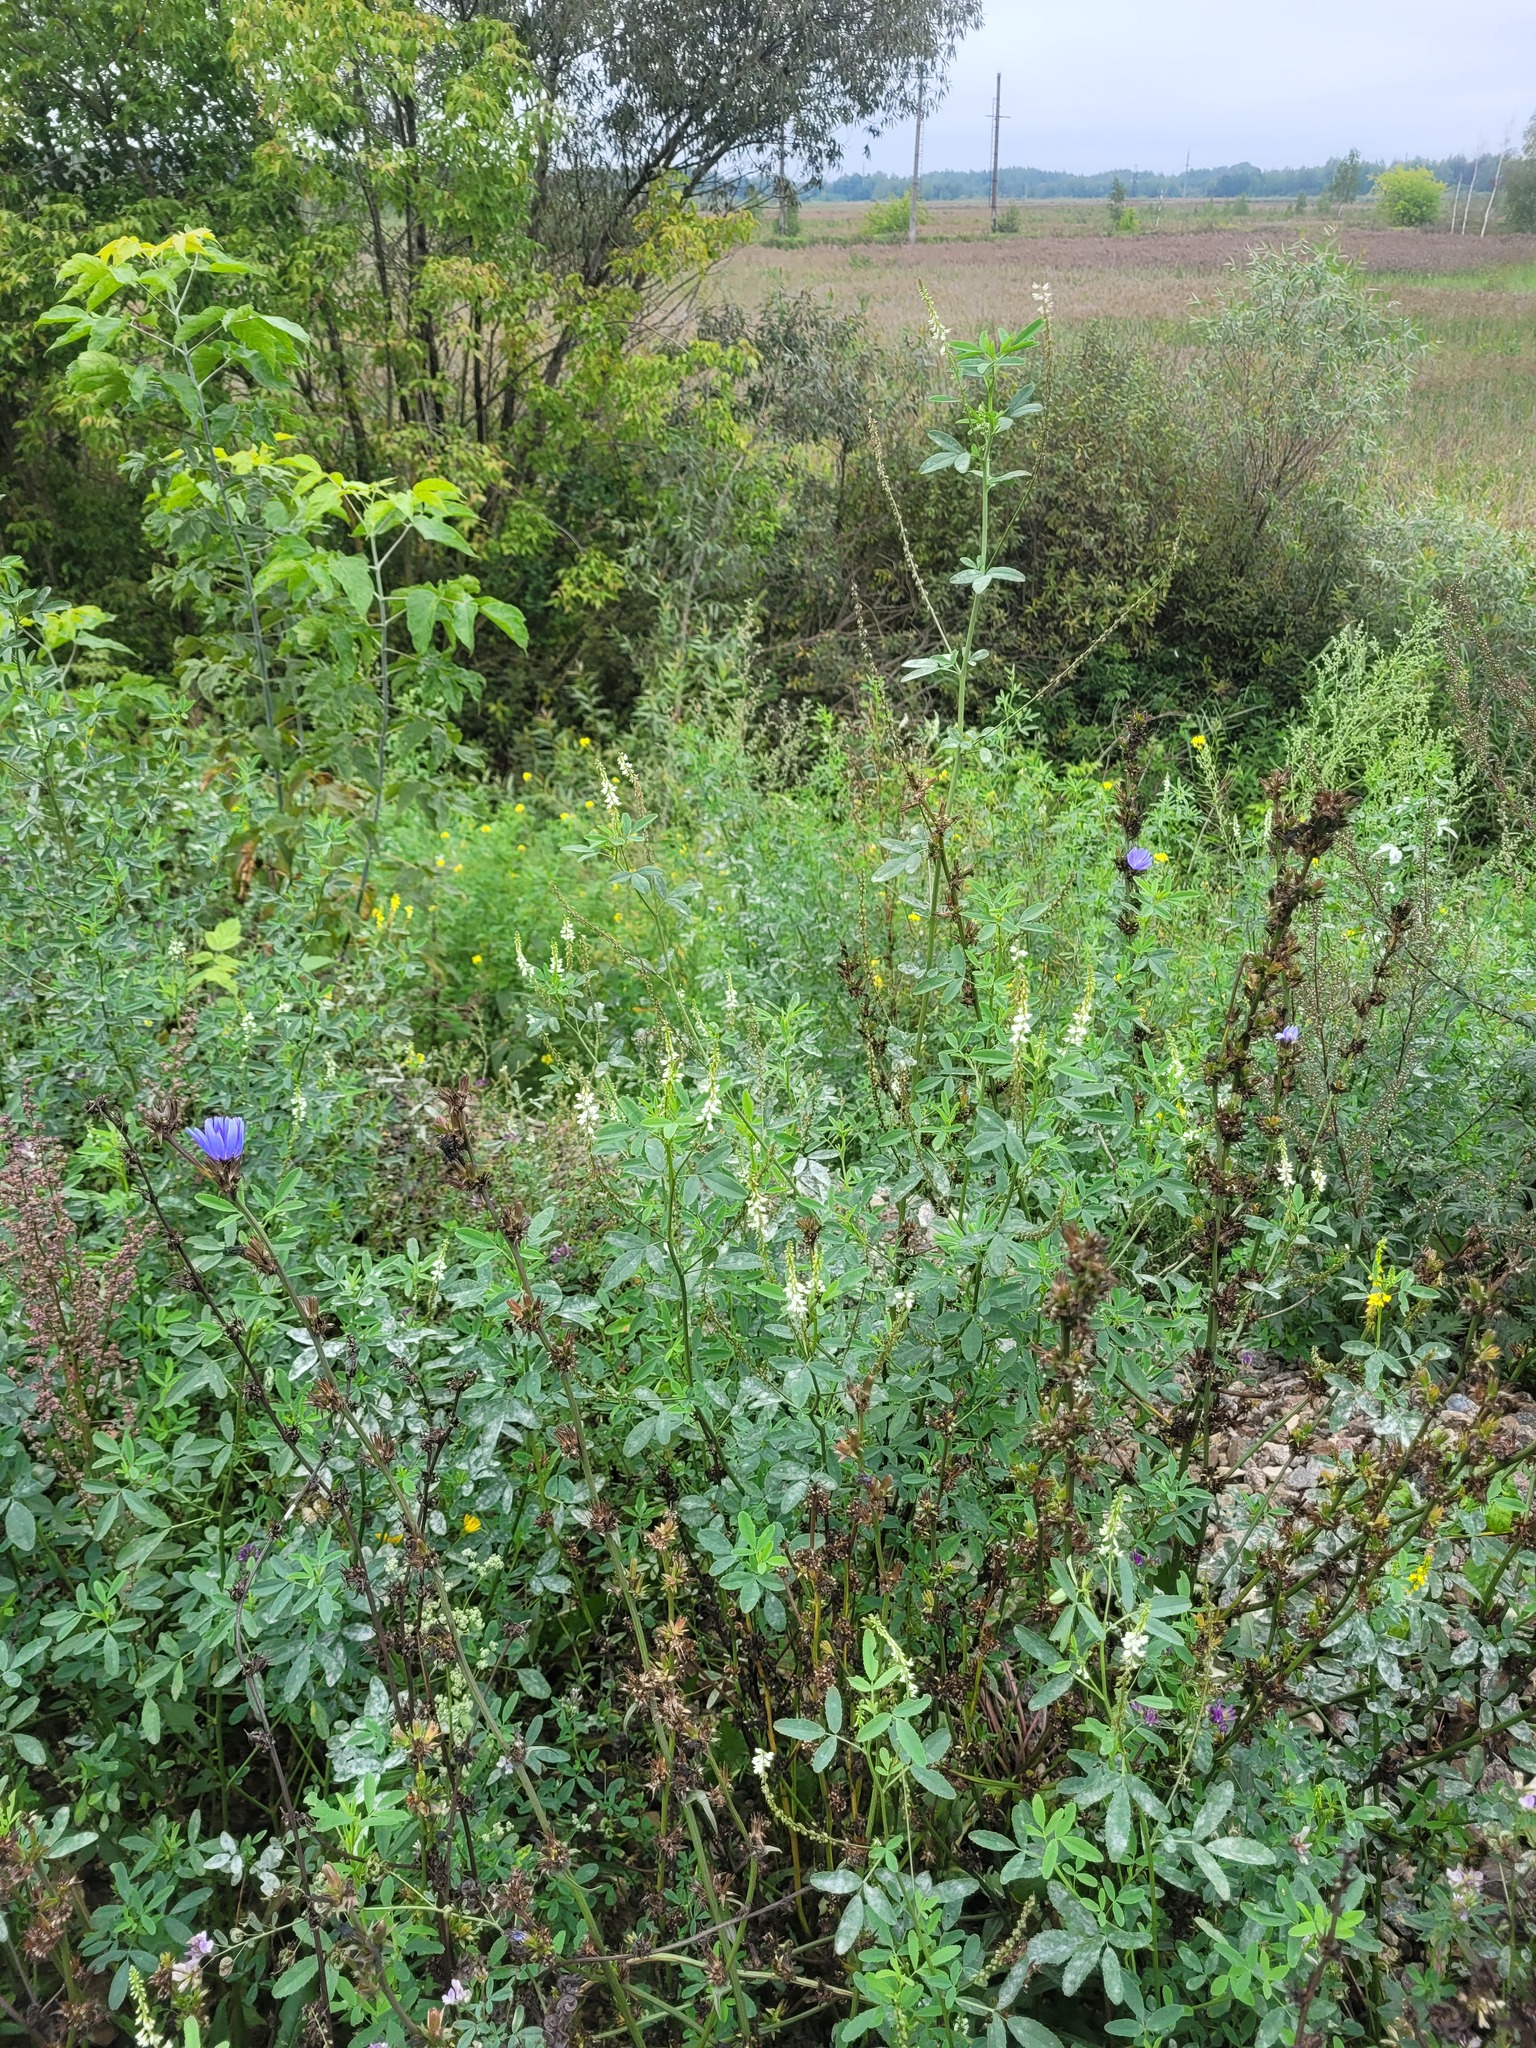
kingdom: Plantae
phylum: Tracheophyta
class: Magnoliopsida
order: Fabales
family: Fabaceae
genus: Melilotus
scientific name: Melilotus albus
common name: White melilot
